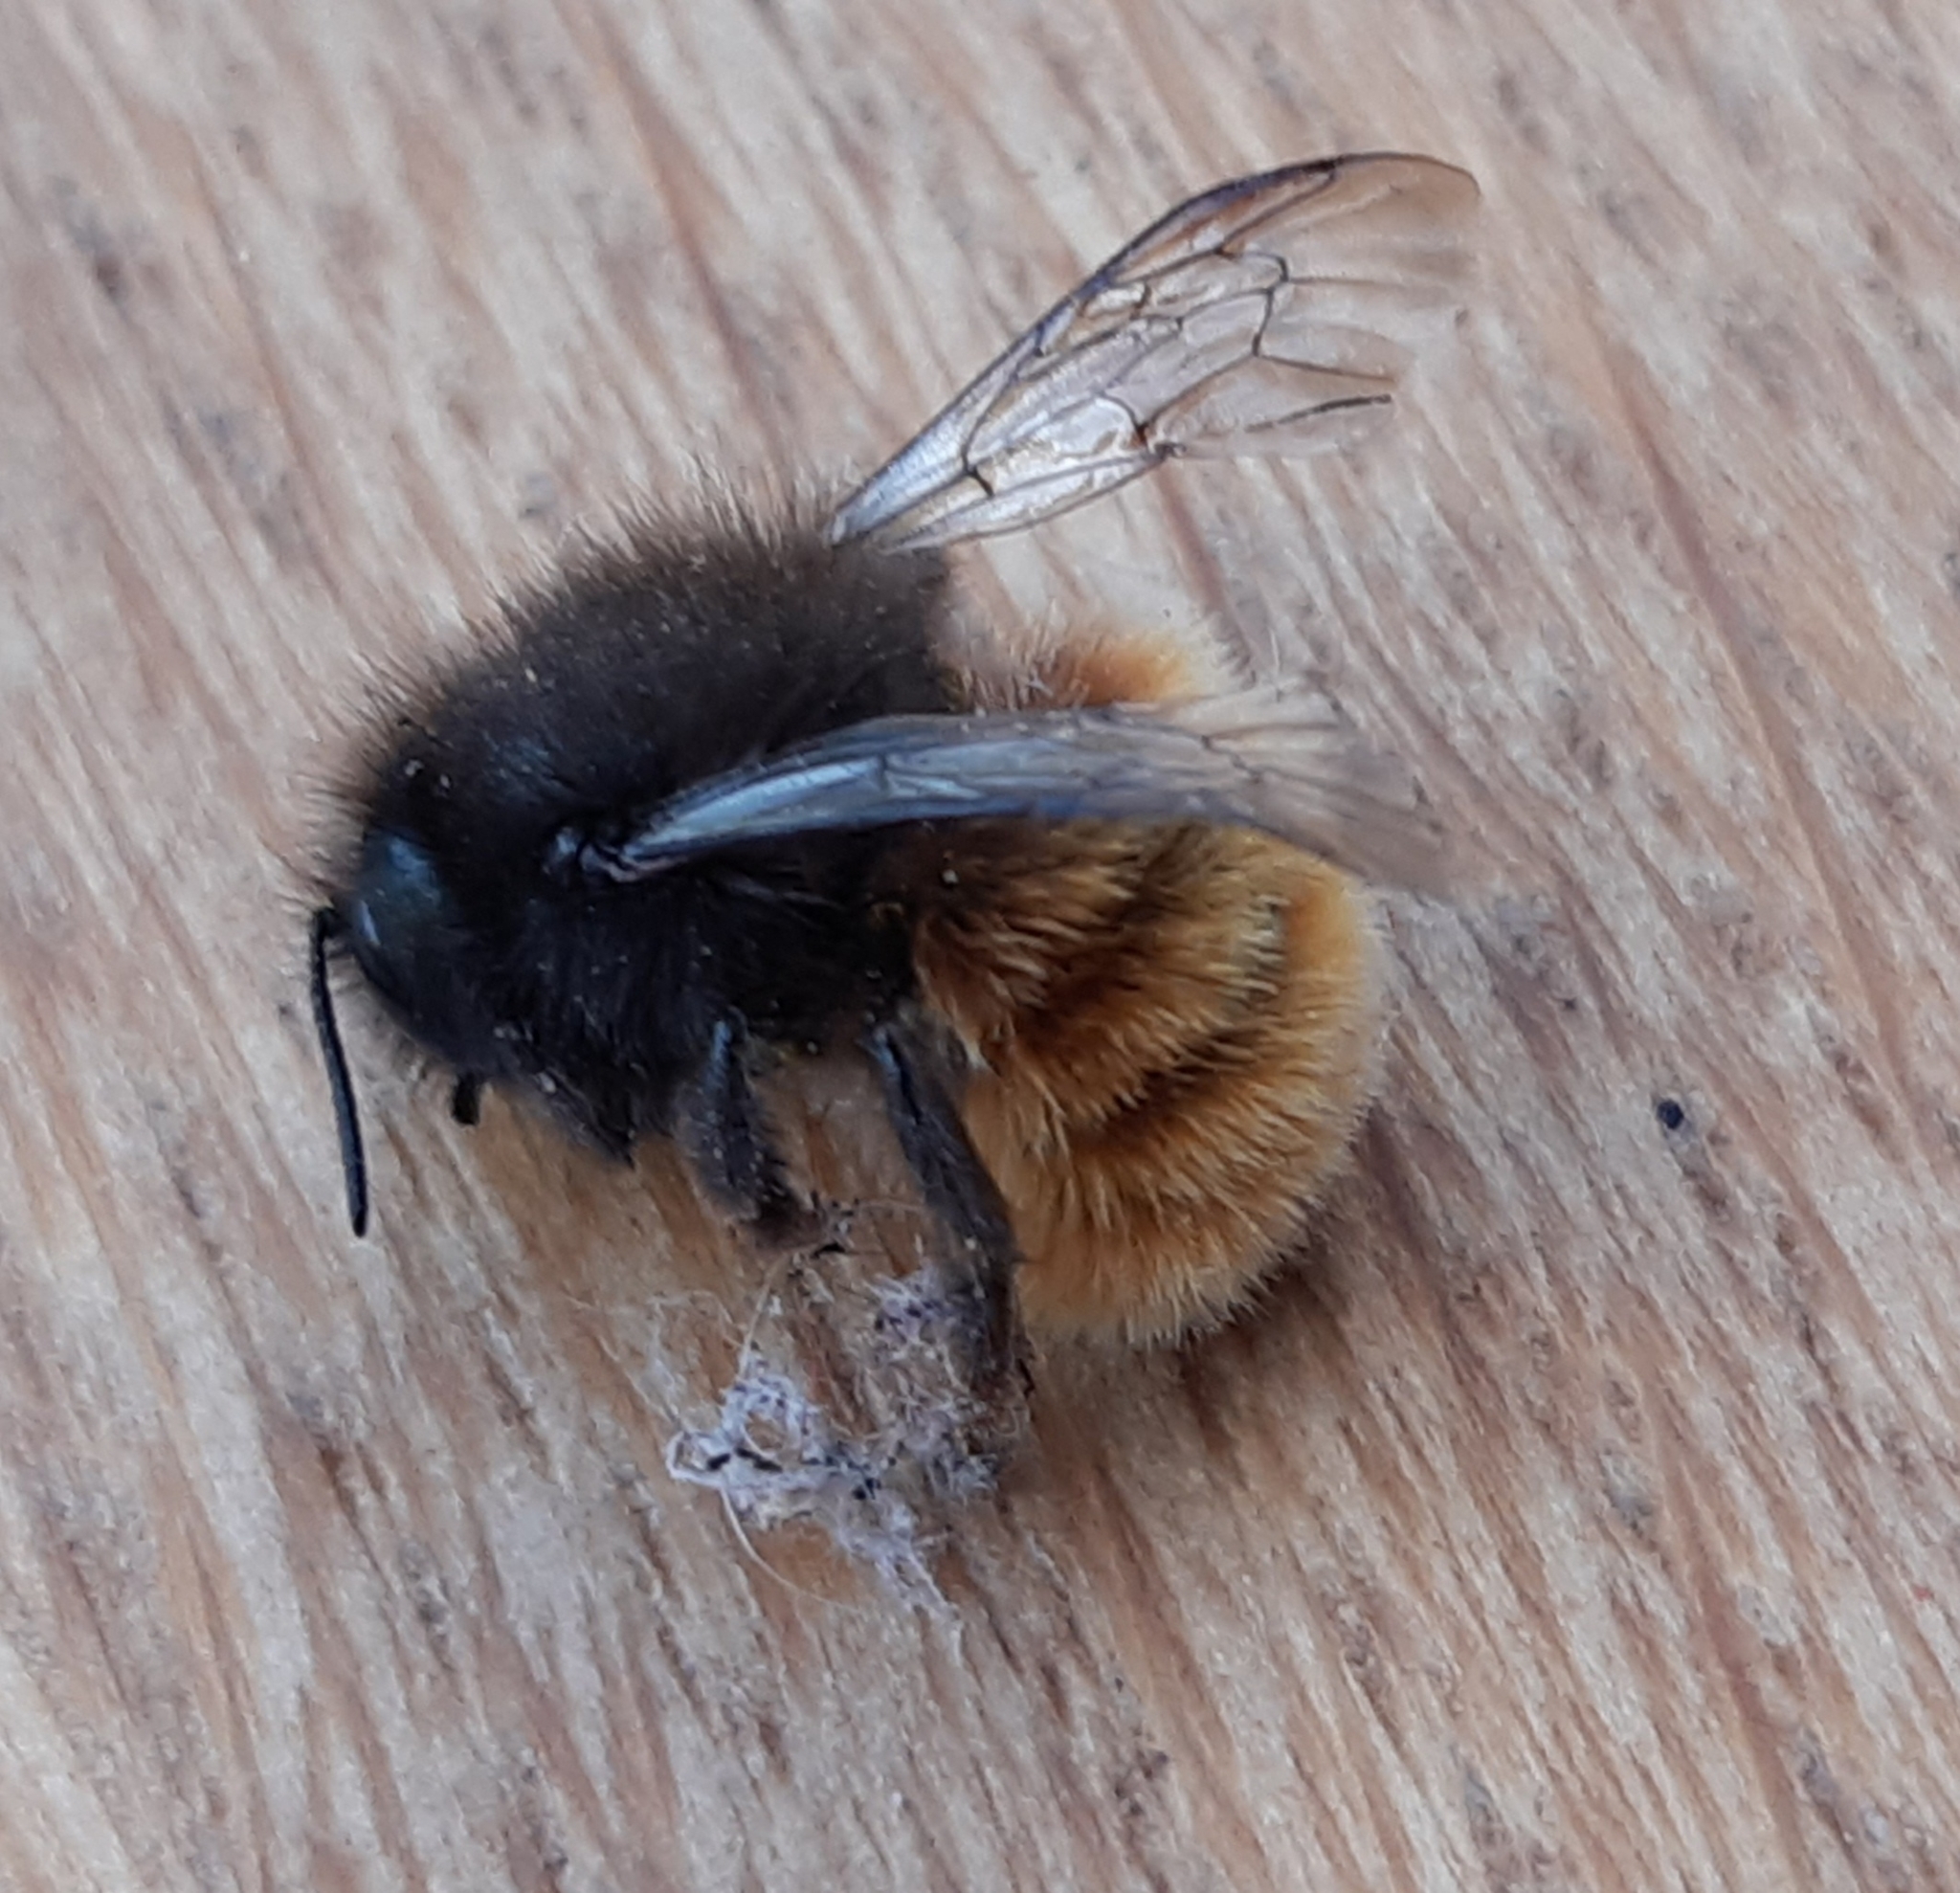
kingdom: Animalia
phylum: Arthropoda
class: Insecta
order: Hymenoptera
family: Megachilidae
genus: Osmia
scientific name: Osmia cornuta
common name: Mason bee
